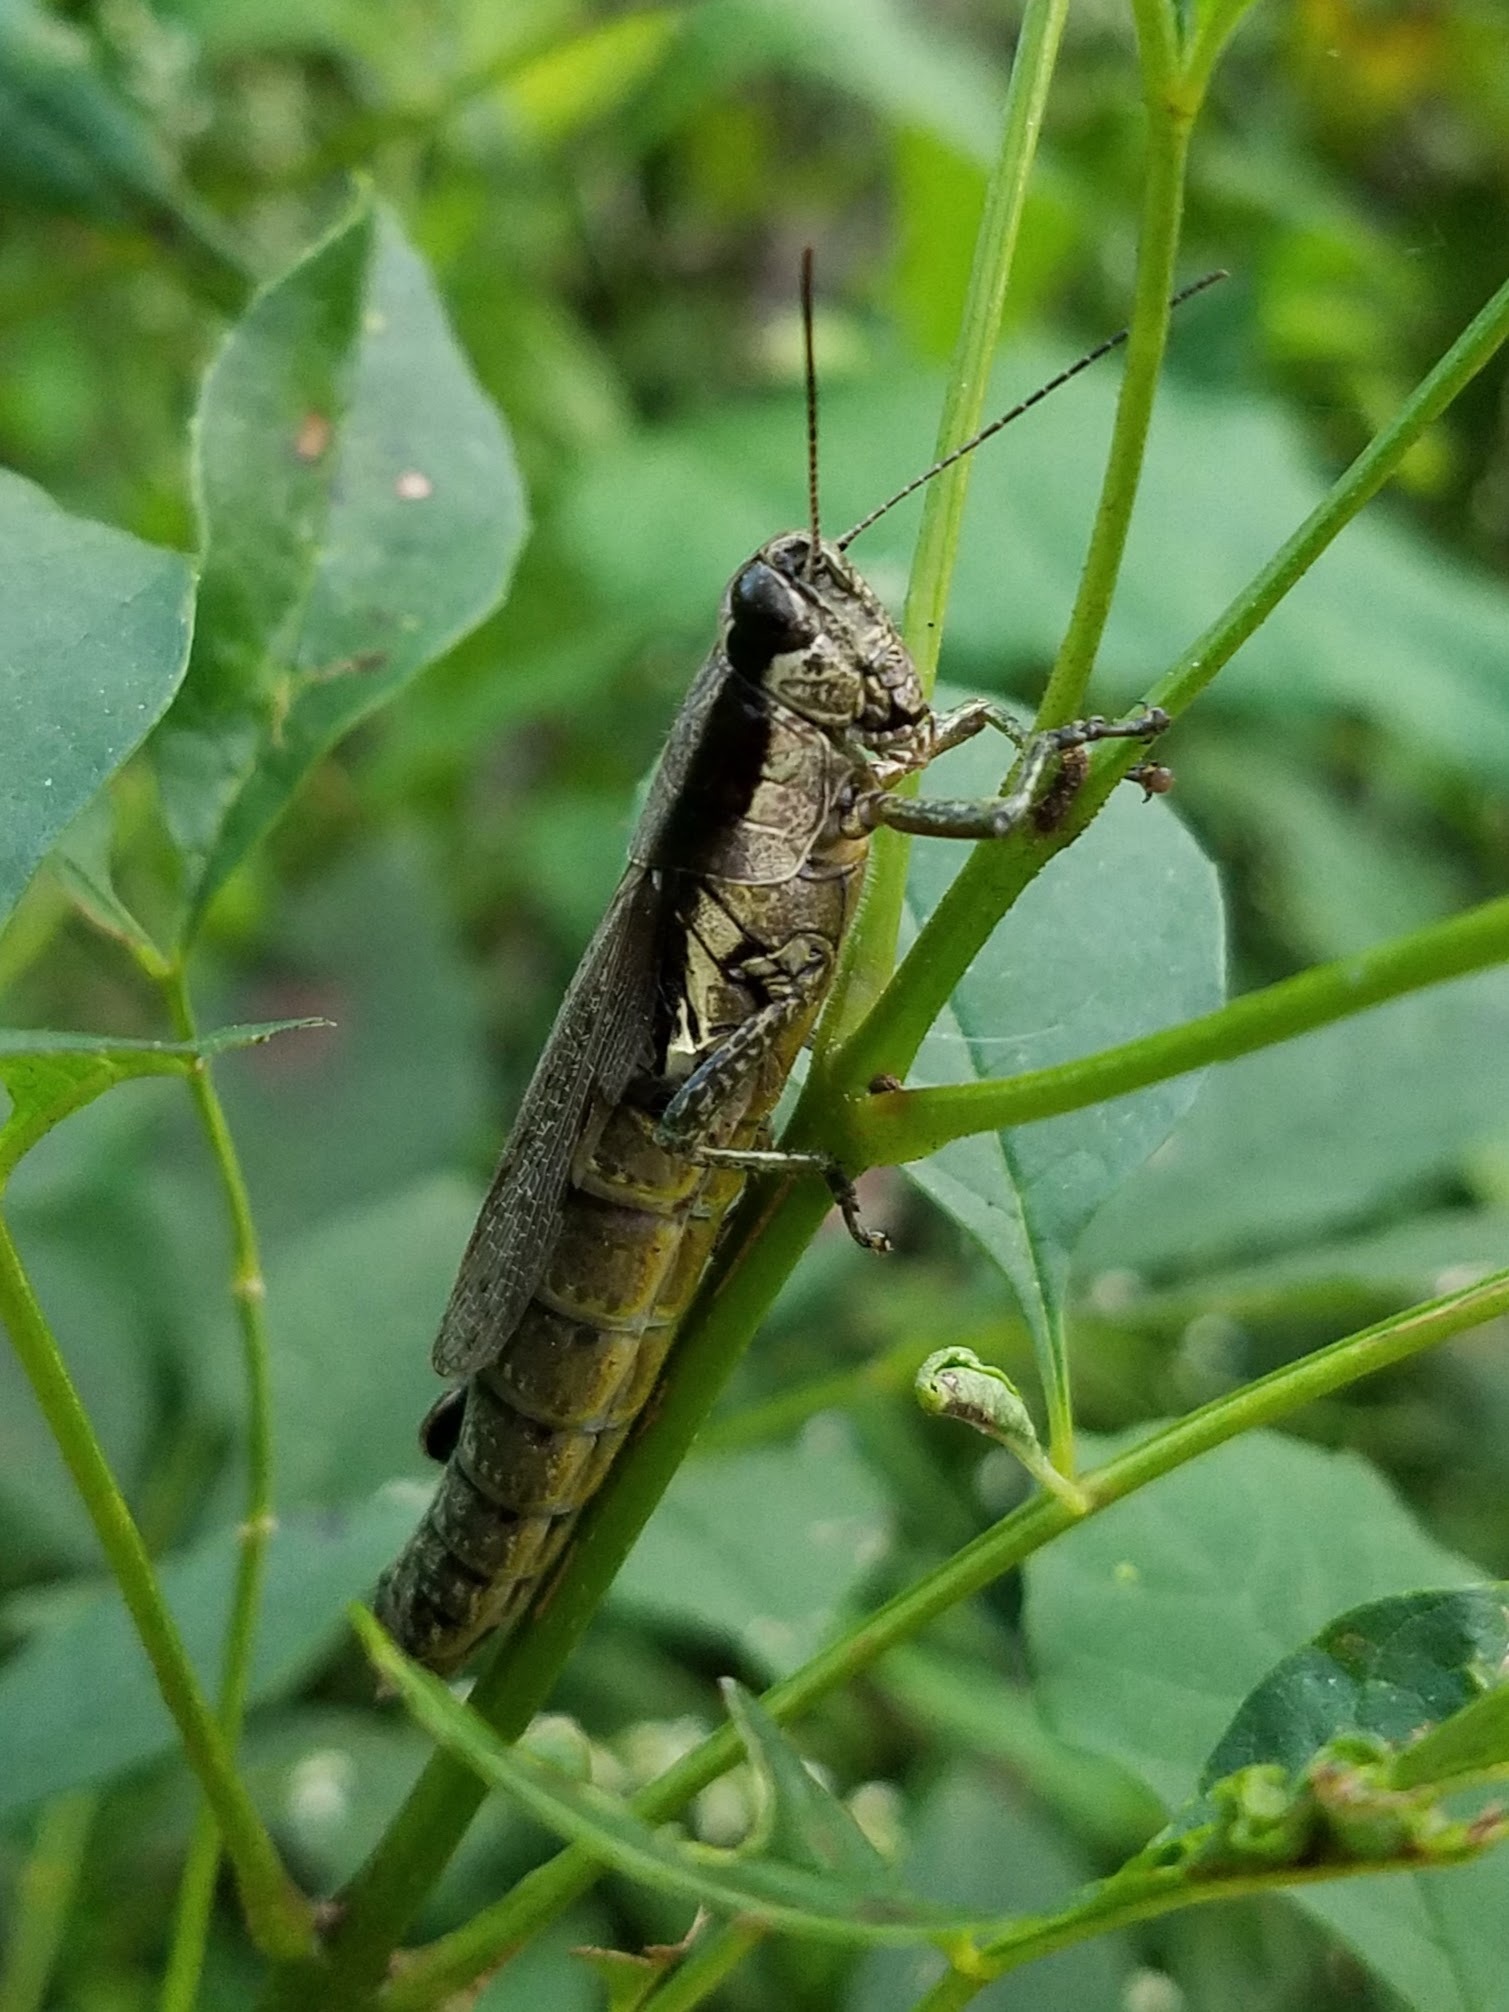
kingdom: Animalia
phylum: Arthropoda
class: Insecta
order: Orthoptera
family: Acrididae
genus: Paroxya
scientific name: Paroxya clavuligera
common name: Olive-green swamp grasshopper
